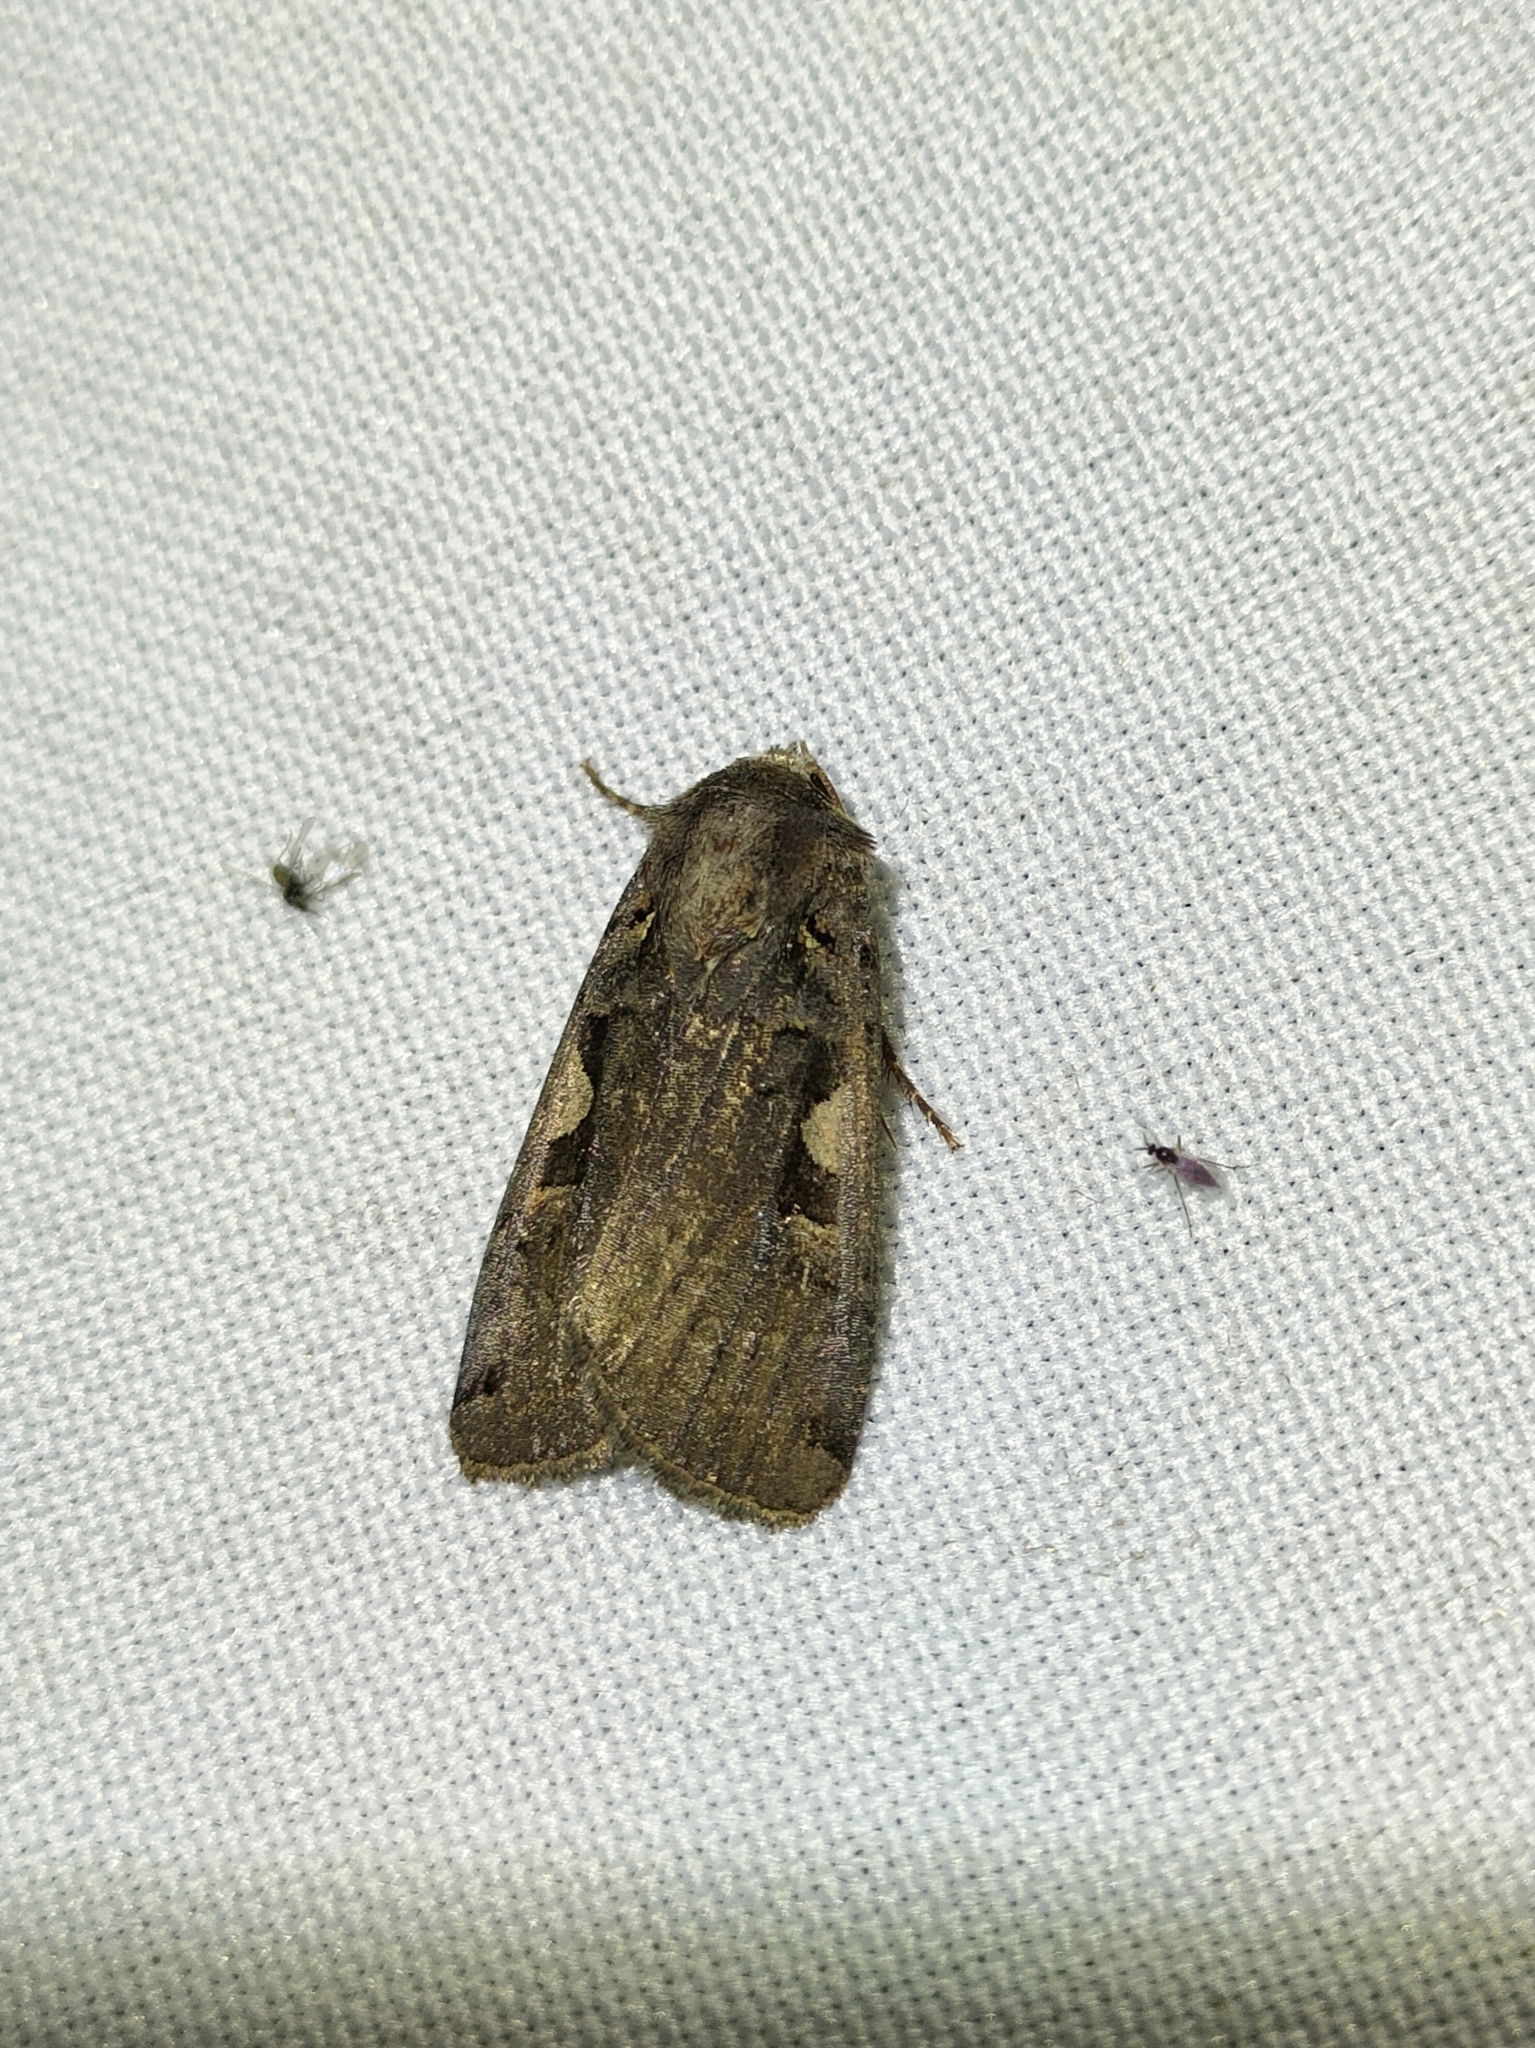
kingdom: Animalia
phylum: Arthropoda
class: Insecta
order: Lepidoptera
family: Noctuidae
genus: Xestia
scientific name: Xestia c-nigrum
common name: Setaceous hebrew character
